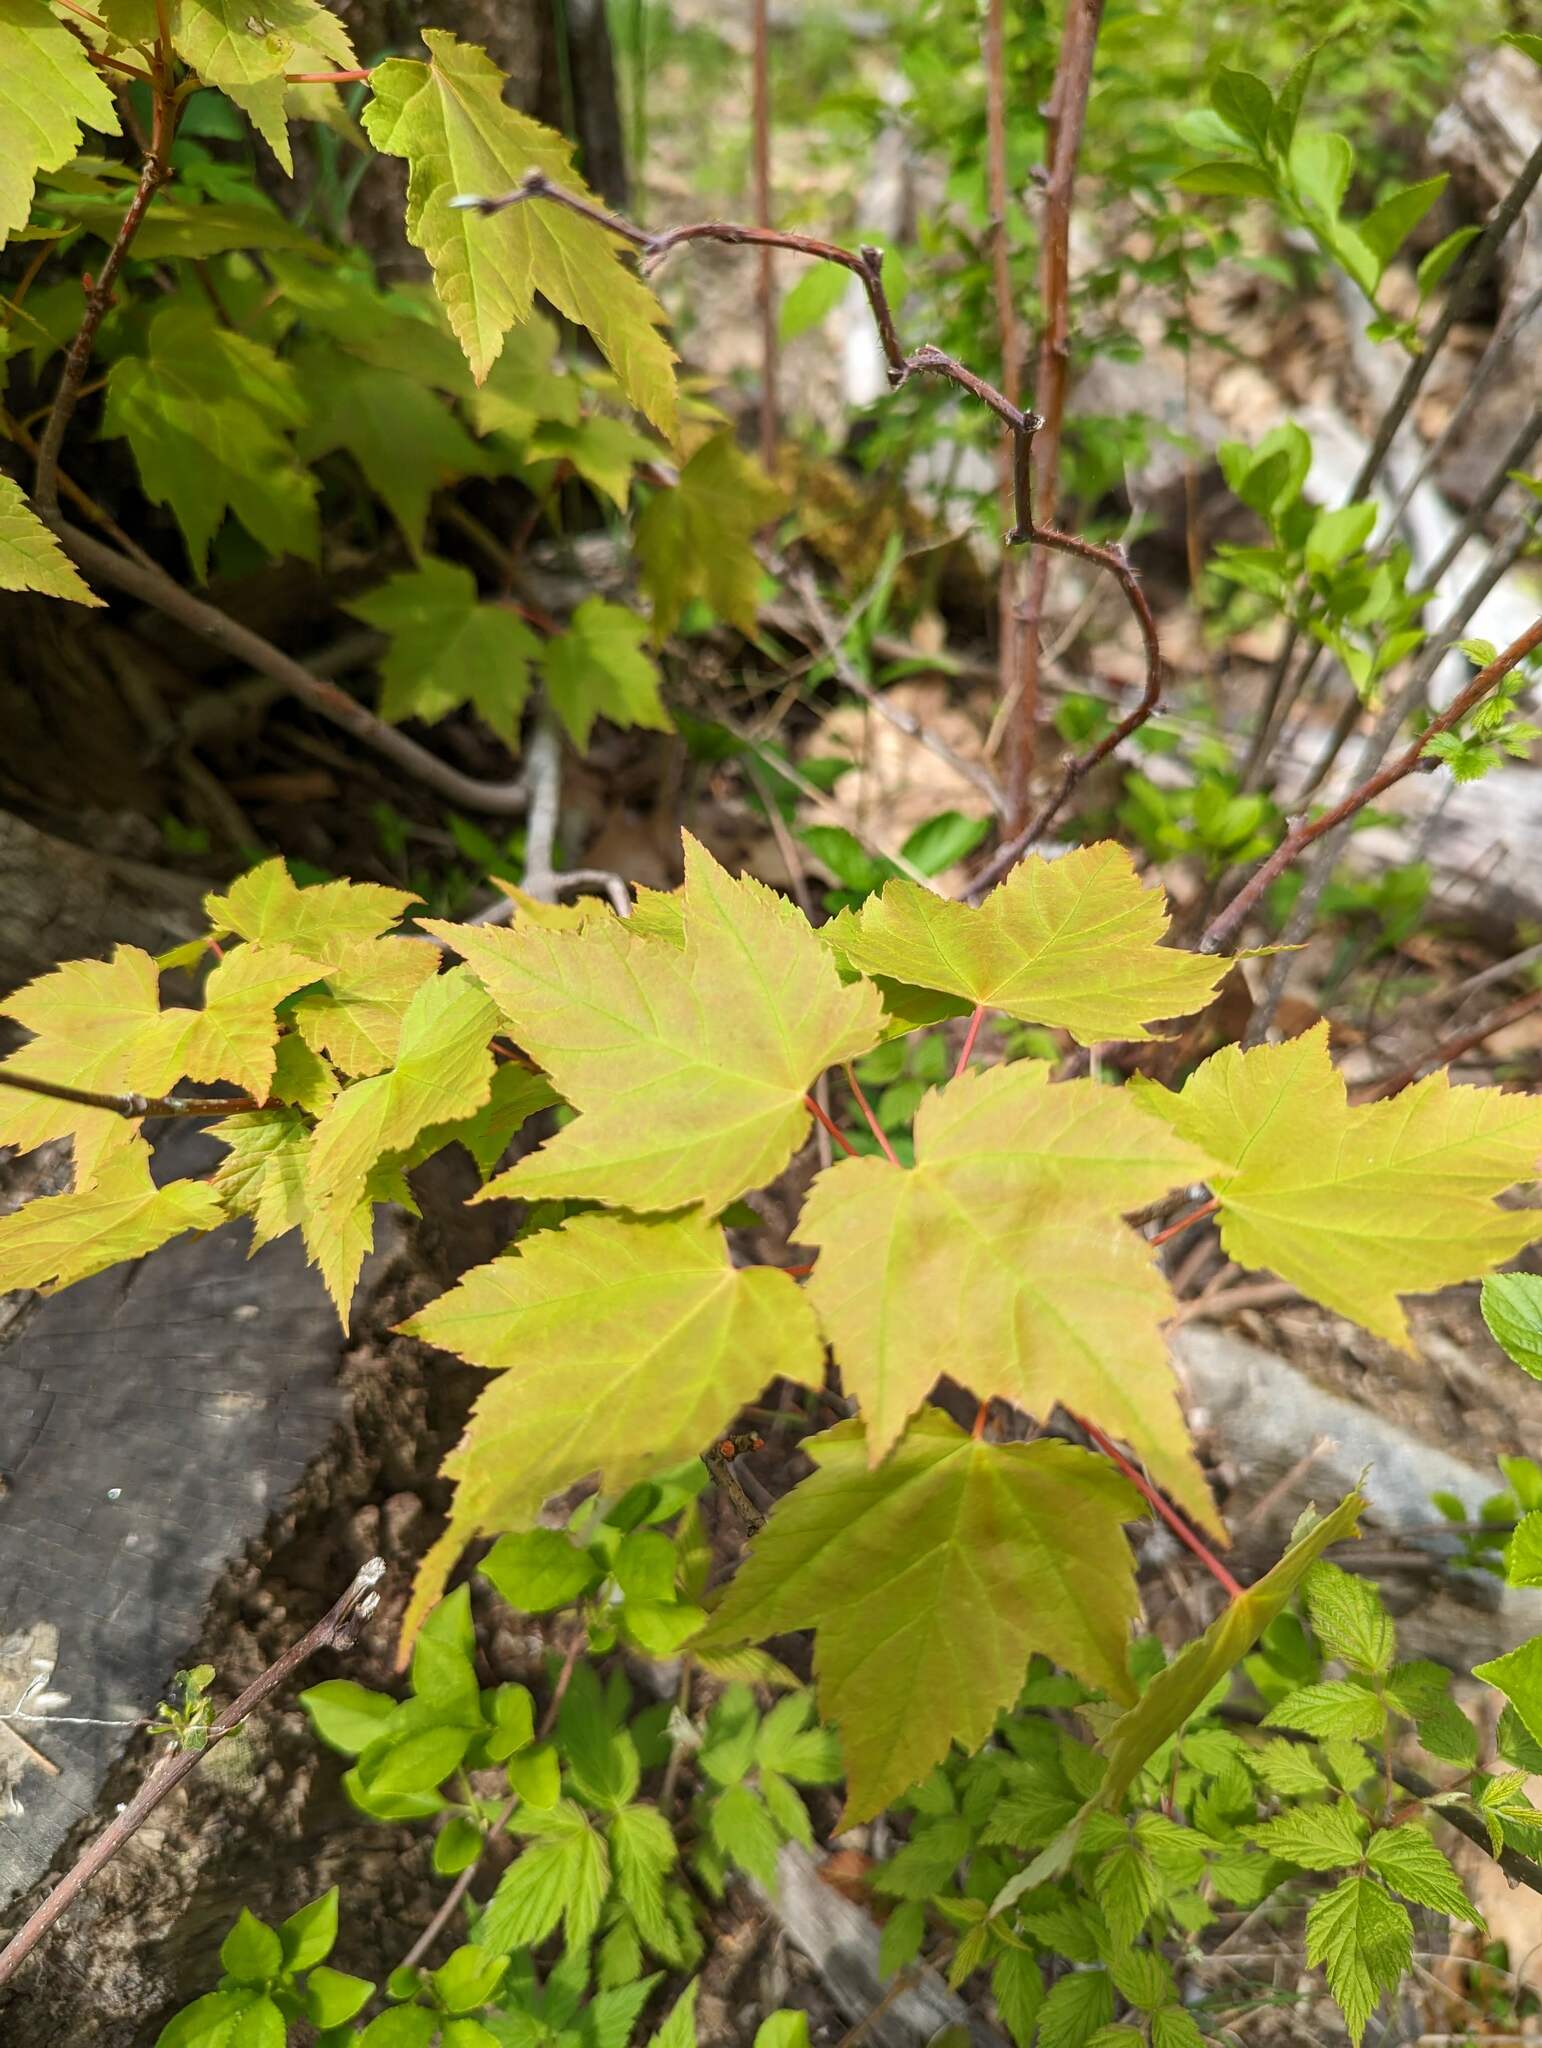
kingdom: Plantae
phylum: Tracheophyta
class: Magnoliopsida
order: Sapindales
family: Sapindaceae
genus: Acer
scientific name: Acer rubrum
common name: Red maple
